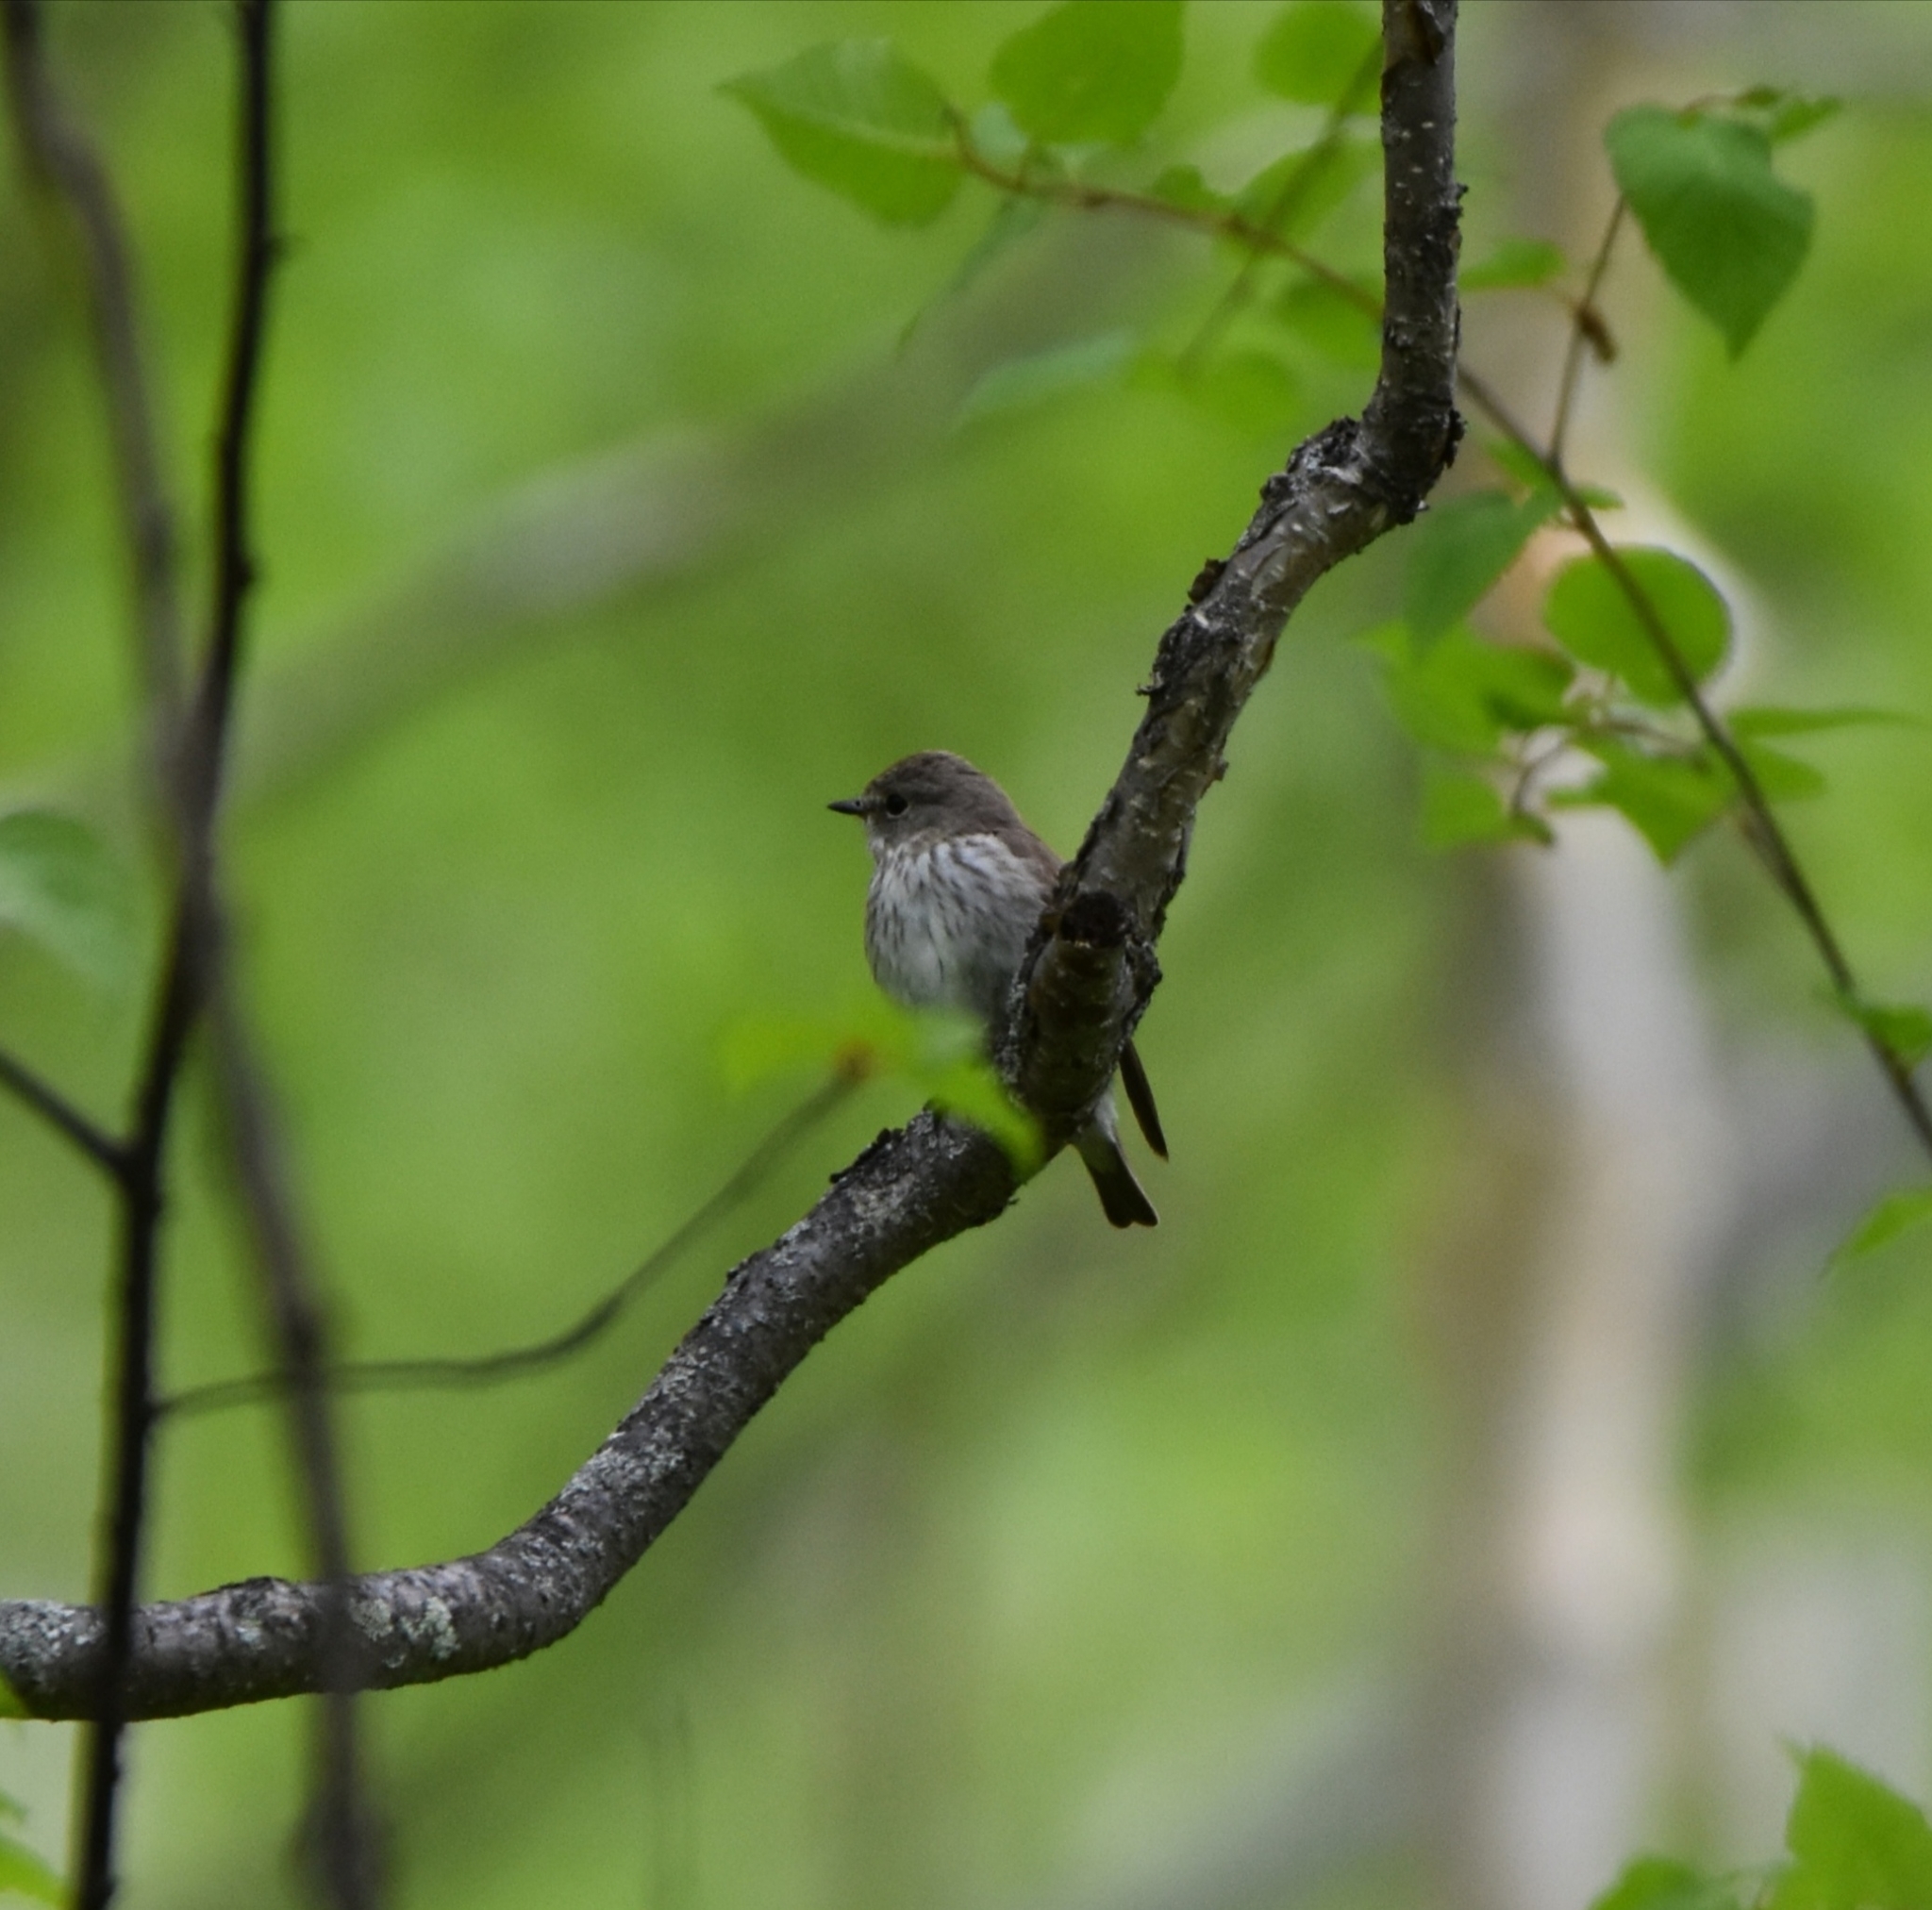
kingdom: Animalia
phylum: Chordata
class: Aves
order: Passeriformes
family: Muscicapidae
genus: Muscicapa
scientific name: Muscicapa griseisticta
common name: Gray-streaked flycatcher
